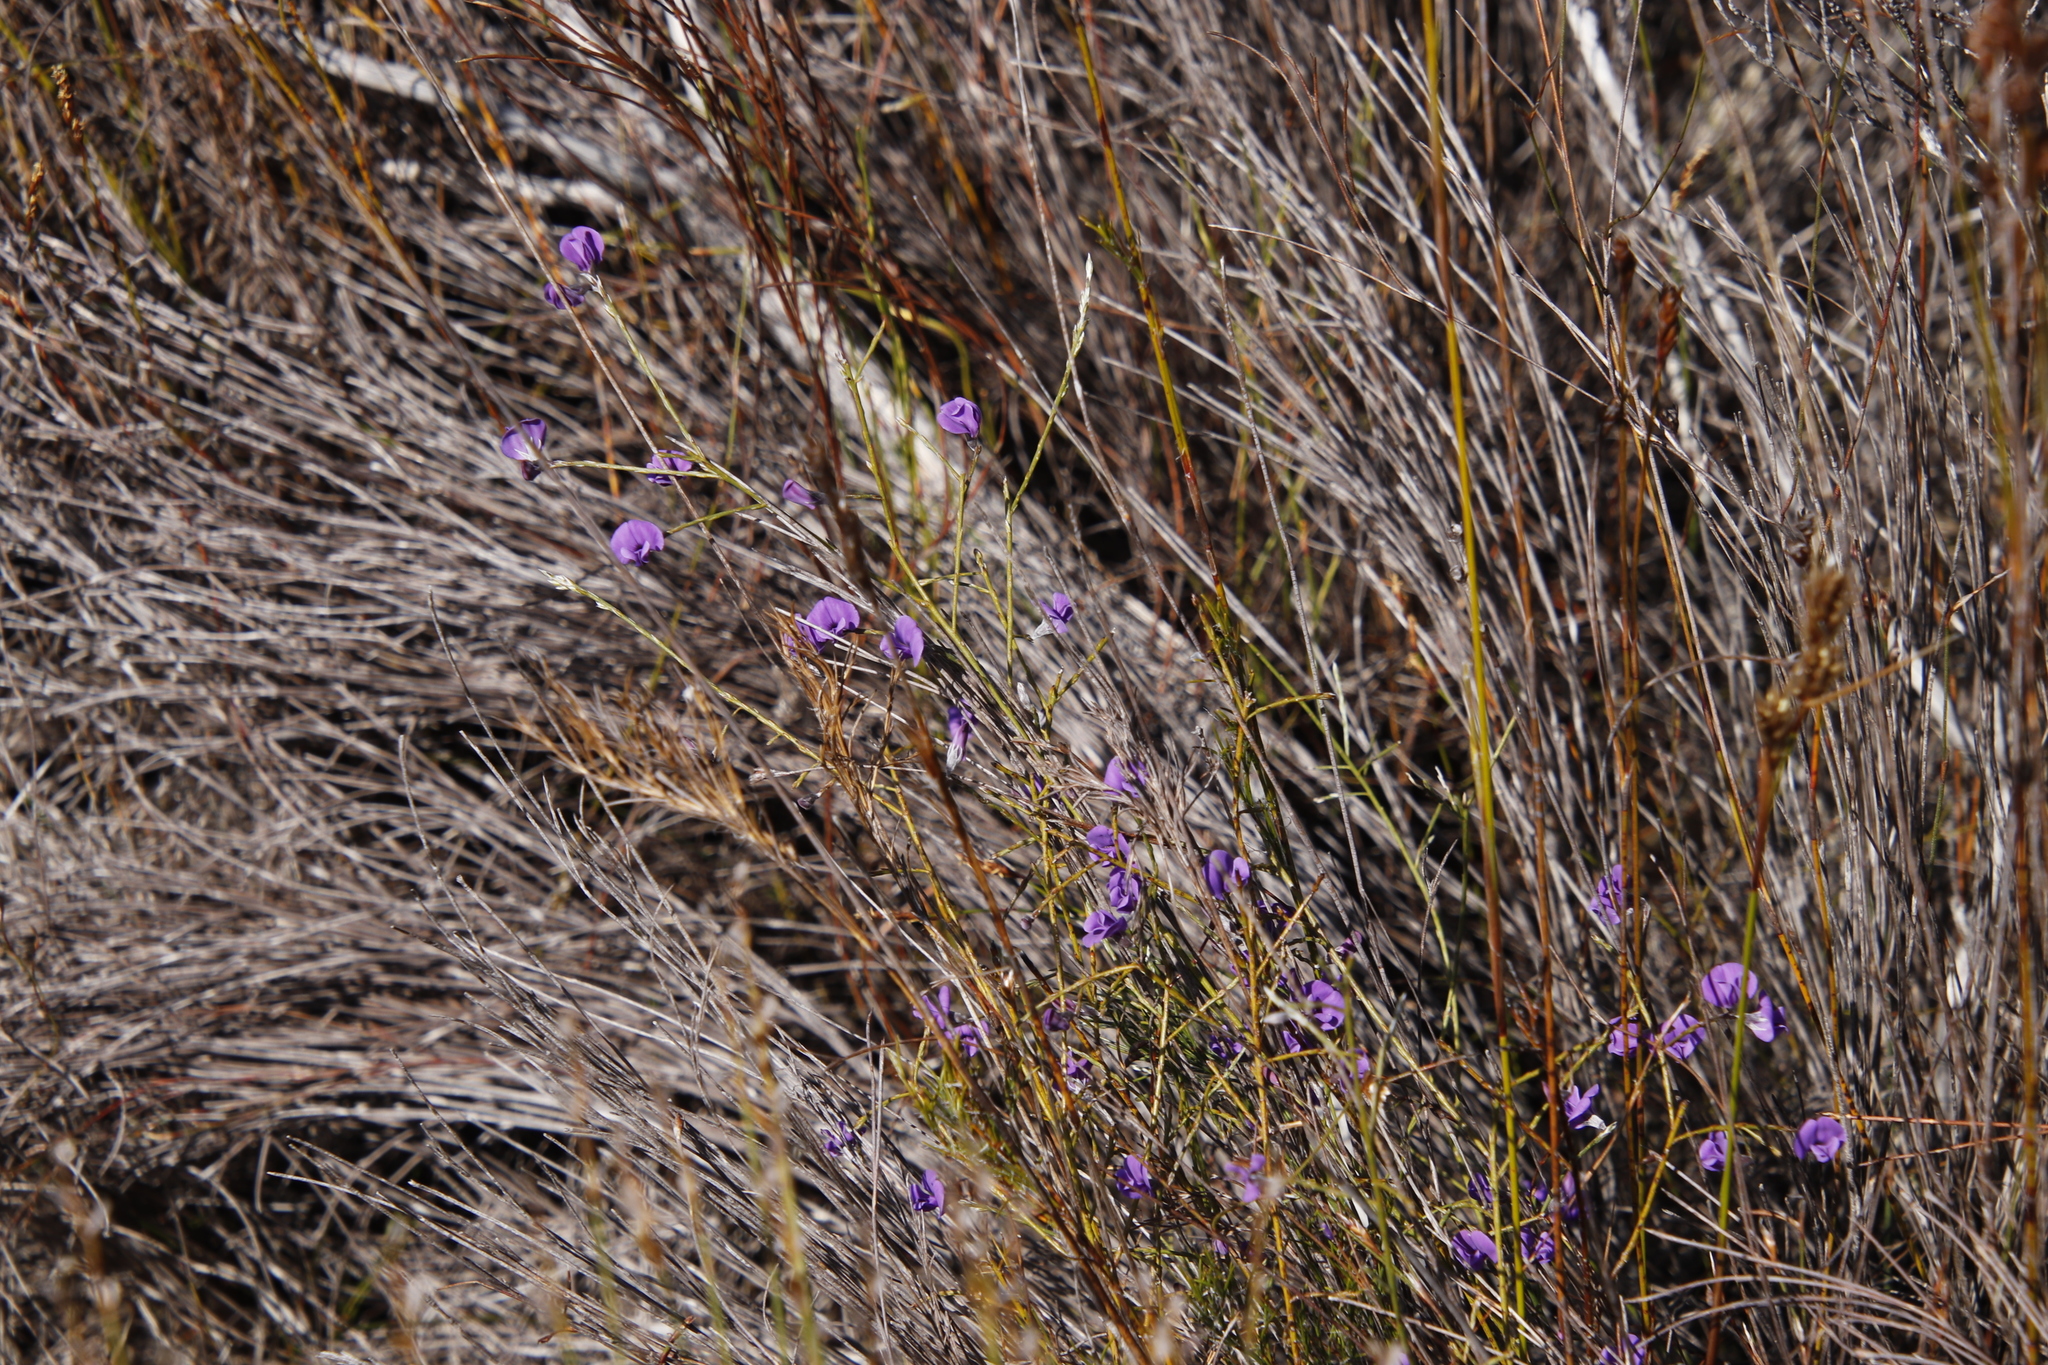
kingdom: Plantae
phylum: Tracheophyta
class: Magnoliopsida
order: Fabales
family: Fabaceae
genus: Amphithalea
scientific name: Amphithalea biovulata
